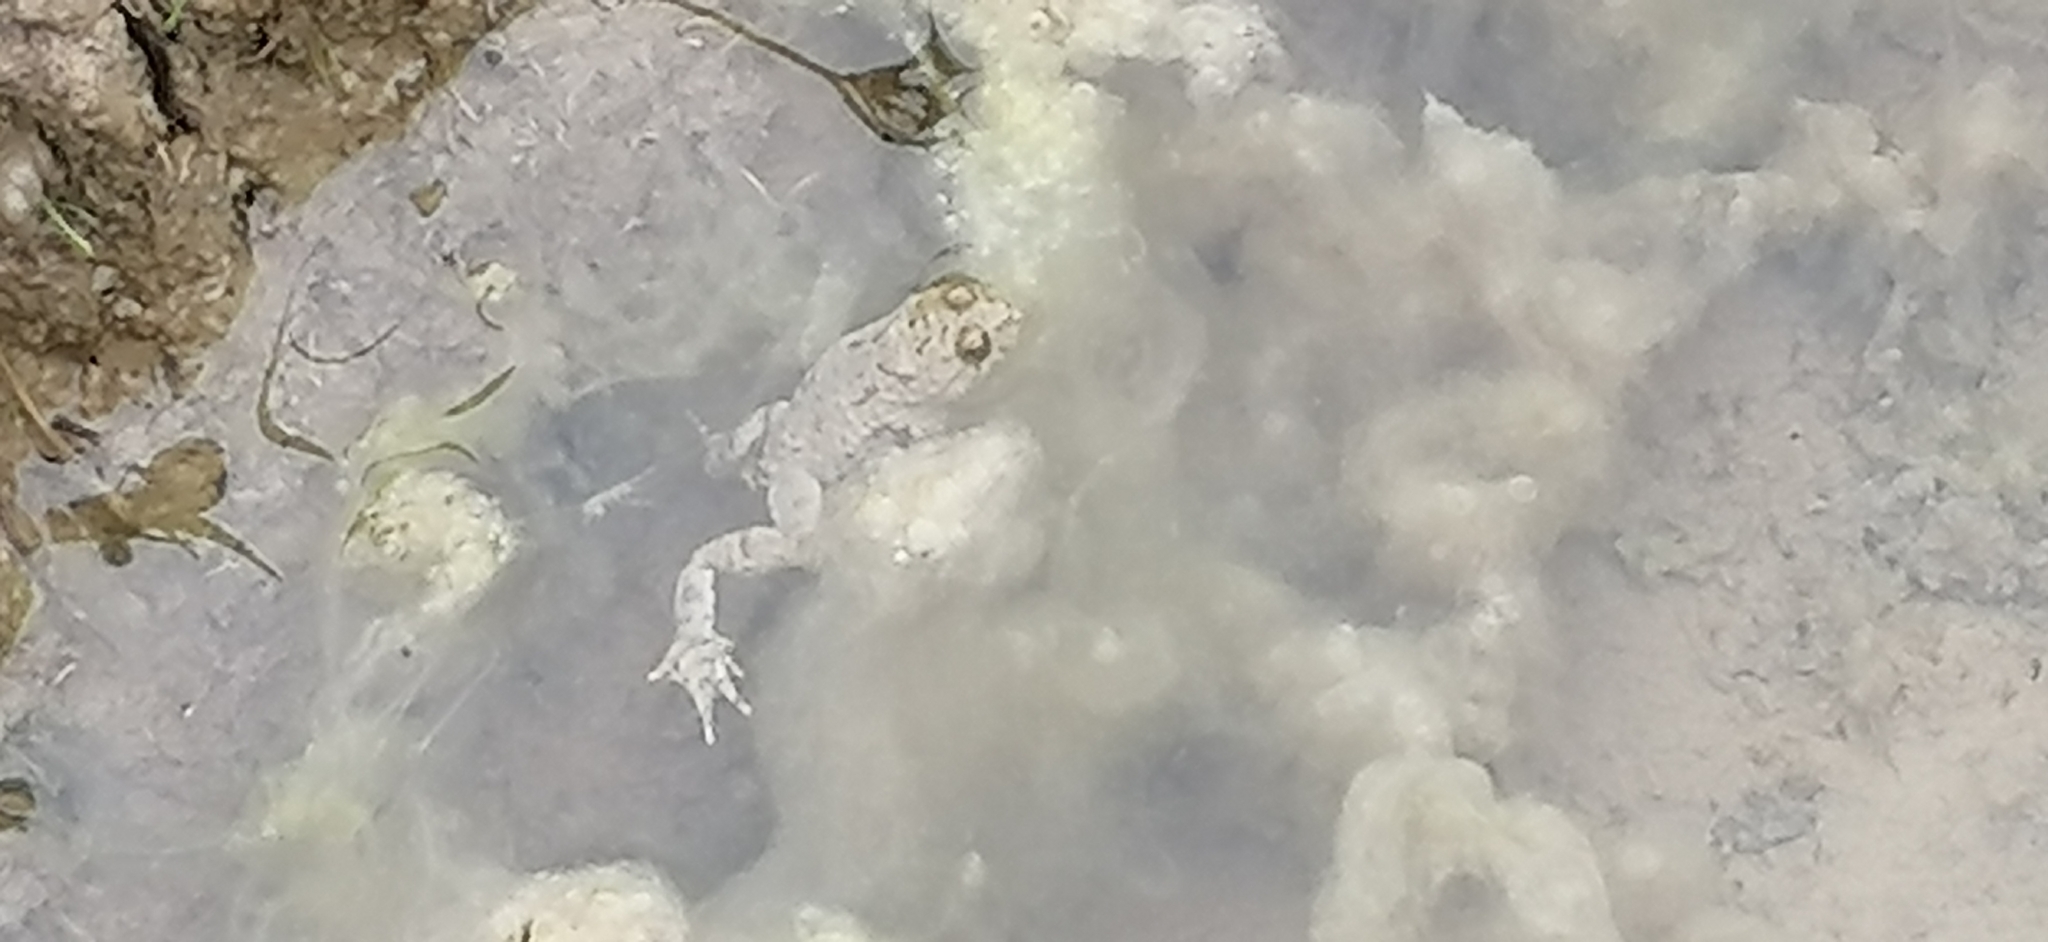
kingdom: Animalia
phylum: Chordata
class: Amphibia
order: Anura
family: Bombinatoridae
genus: Bombina
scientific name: Bombina variegata
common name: Yellow-bellied toad
